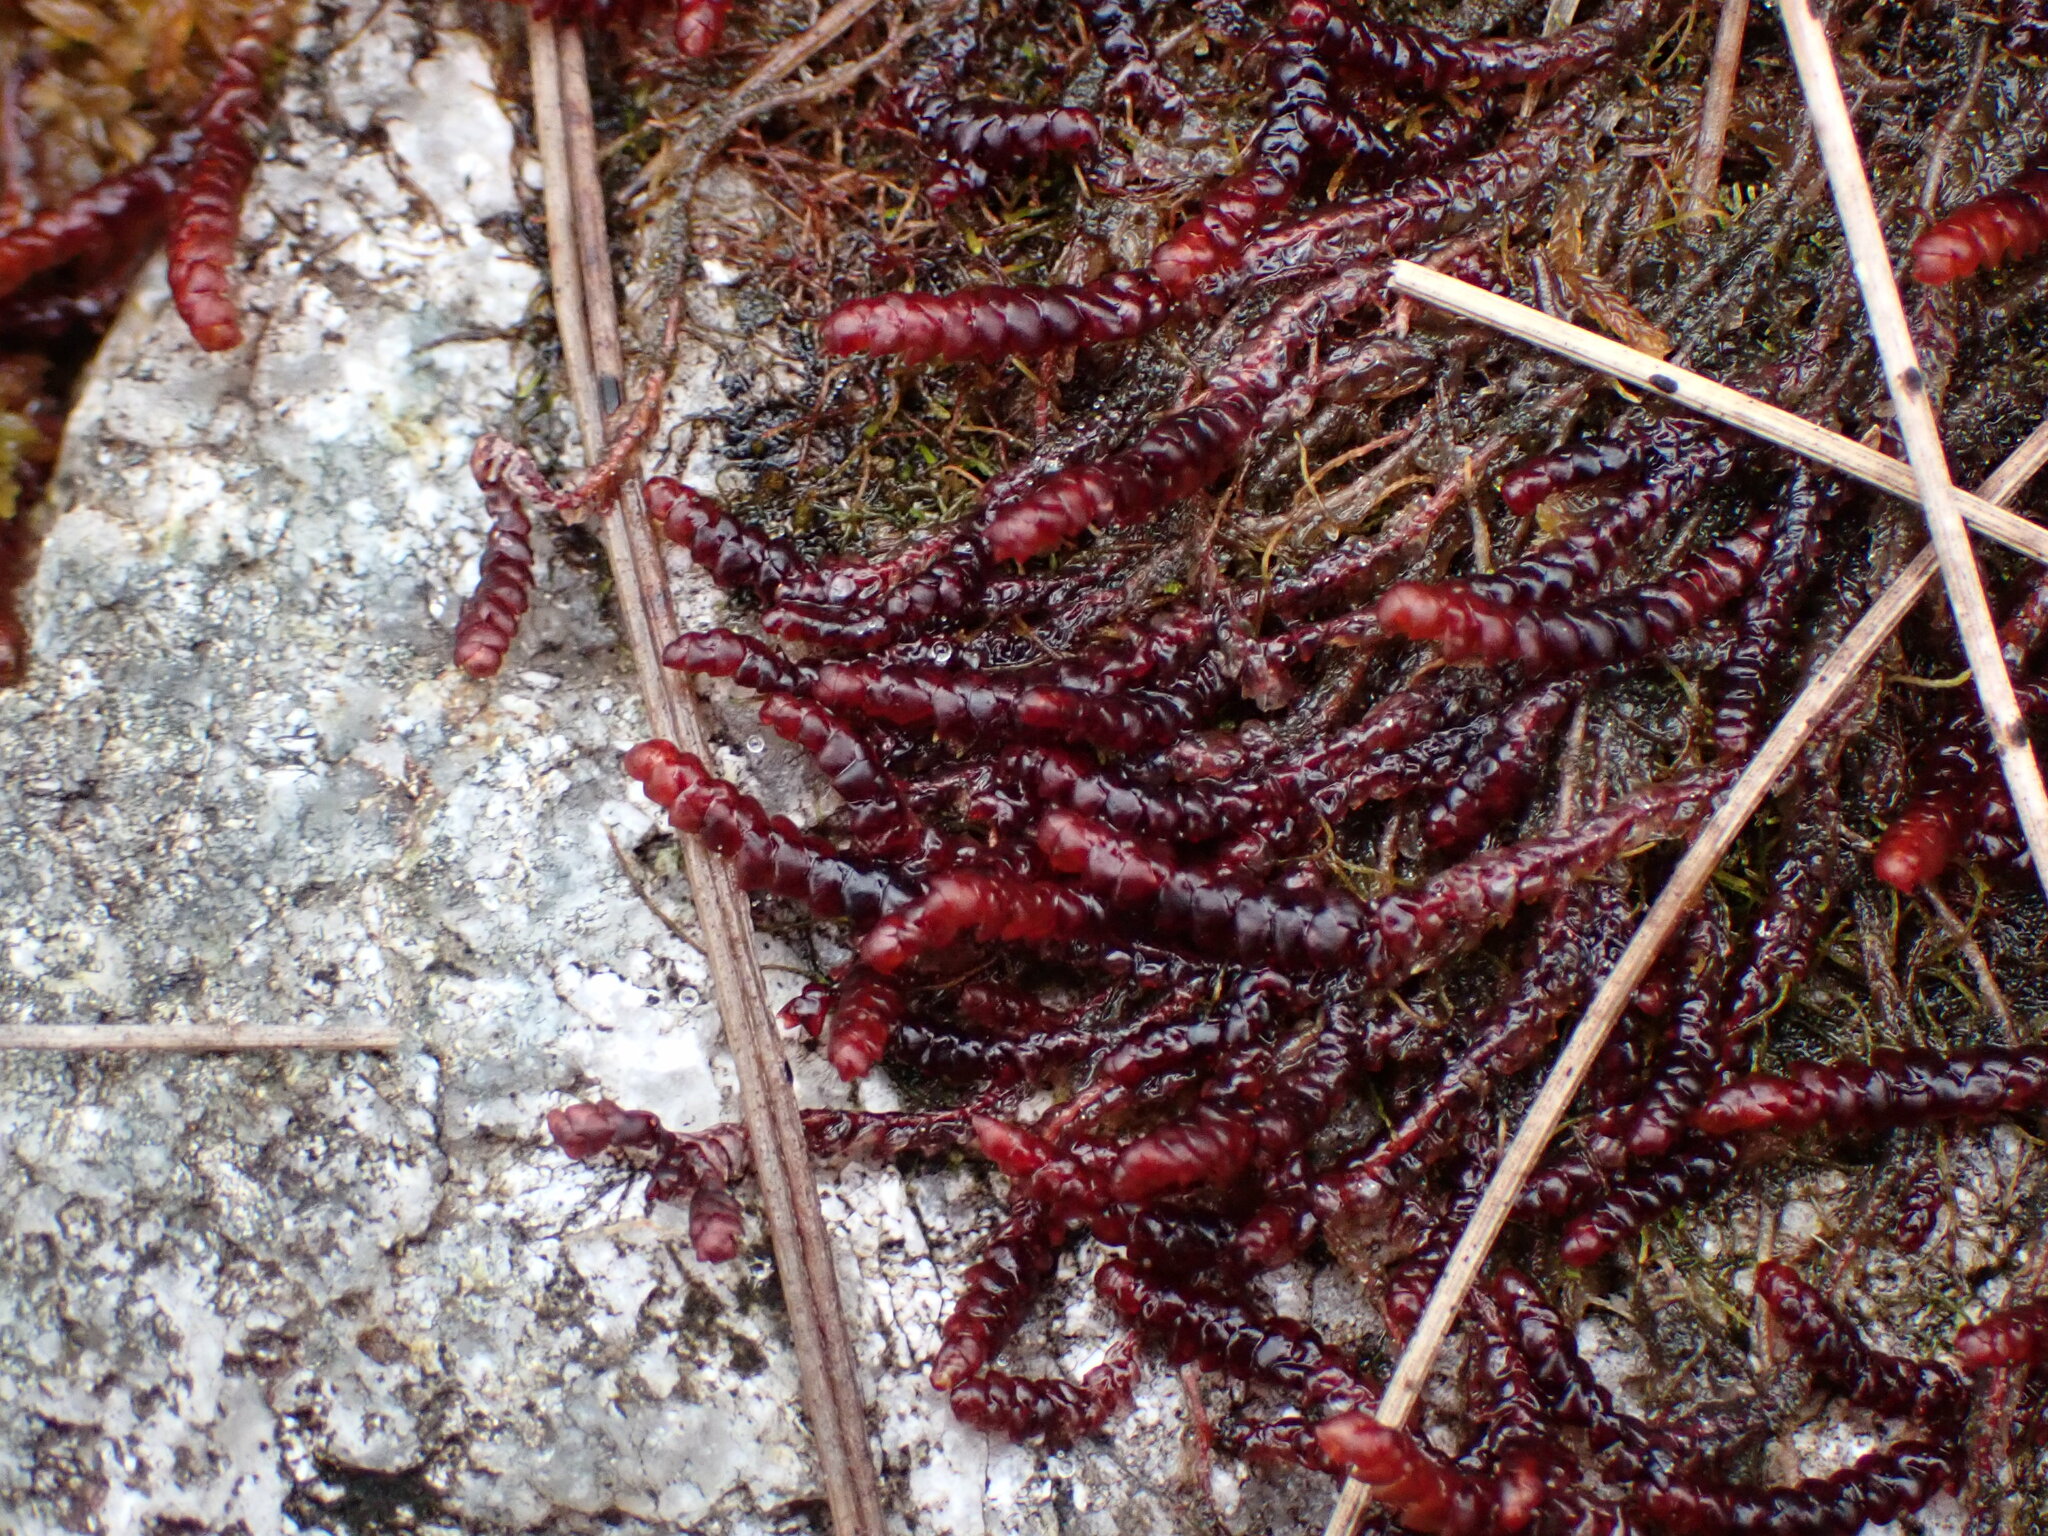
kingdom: Plantae
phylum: Marchantiophyta
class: Jungermanniopsida
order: Pleuroziales
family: Pleuroziaceae
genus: Pleurozia
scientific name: Pleurozia purpurea
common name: Purple spoonwort
